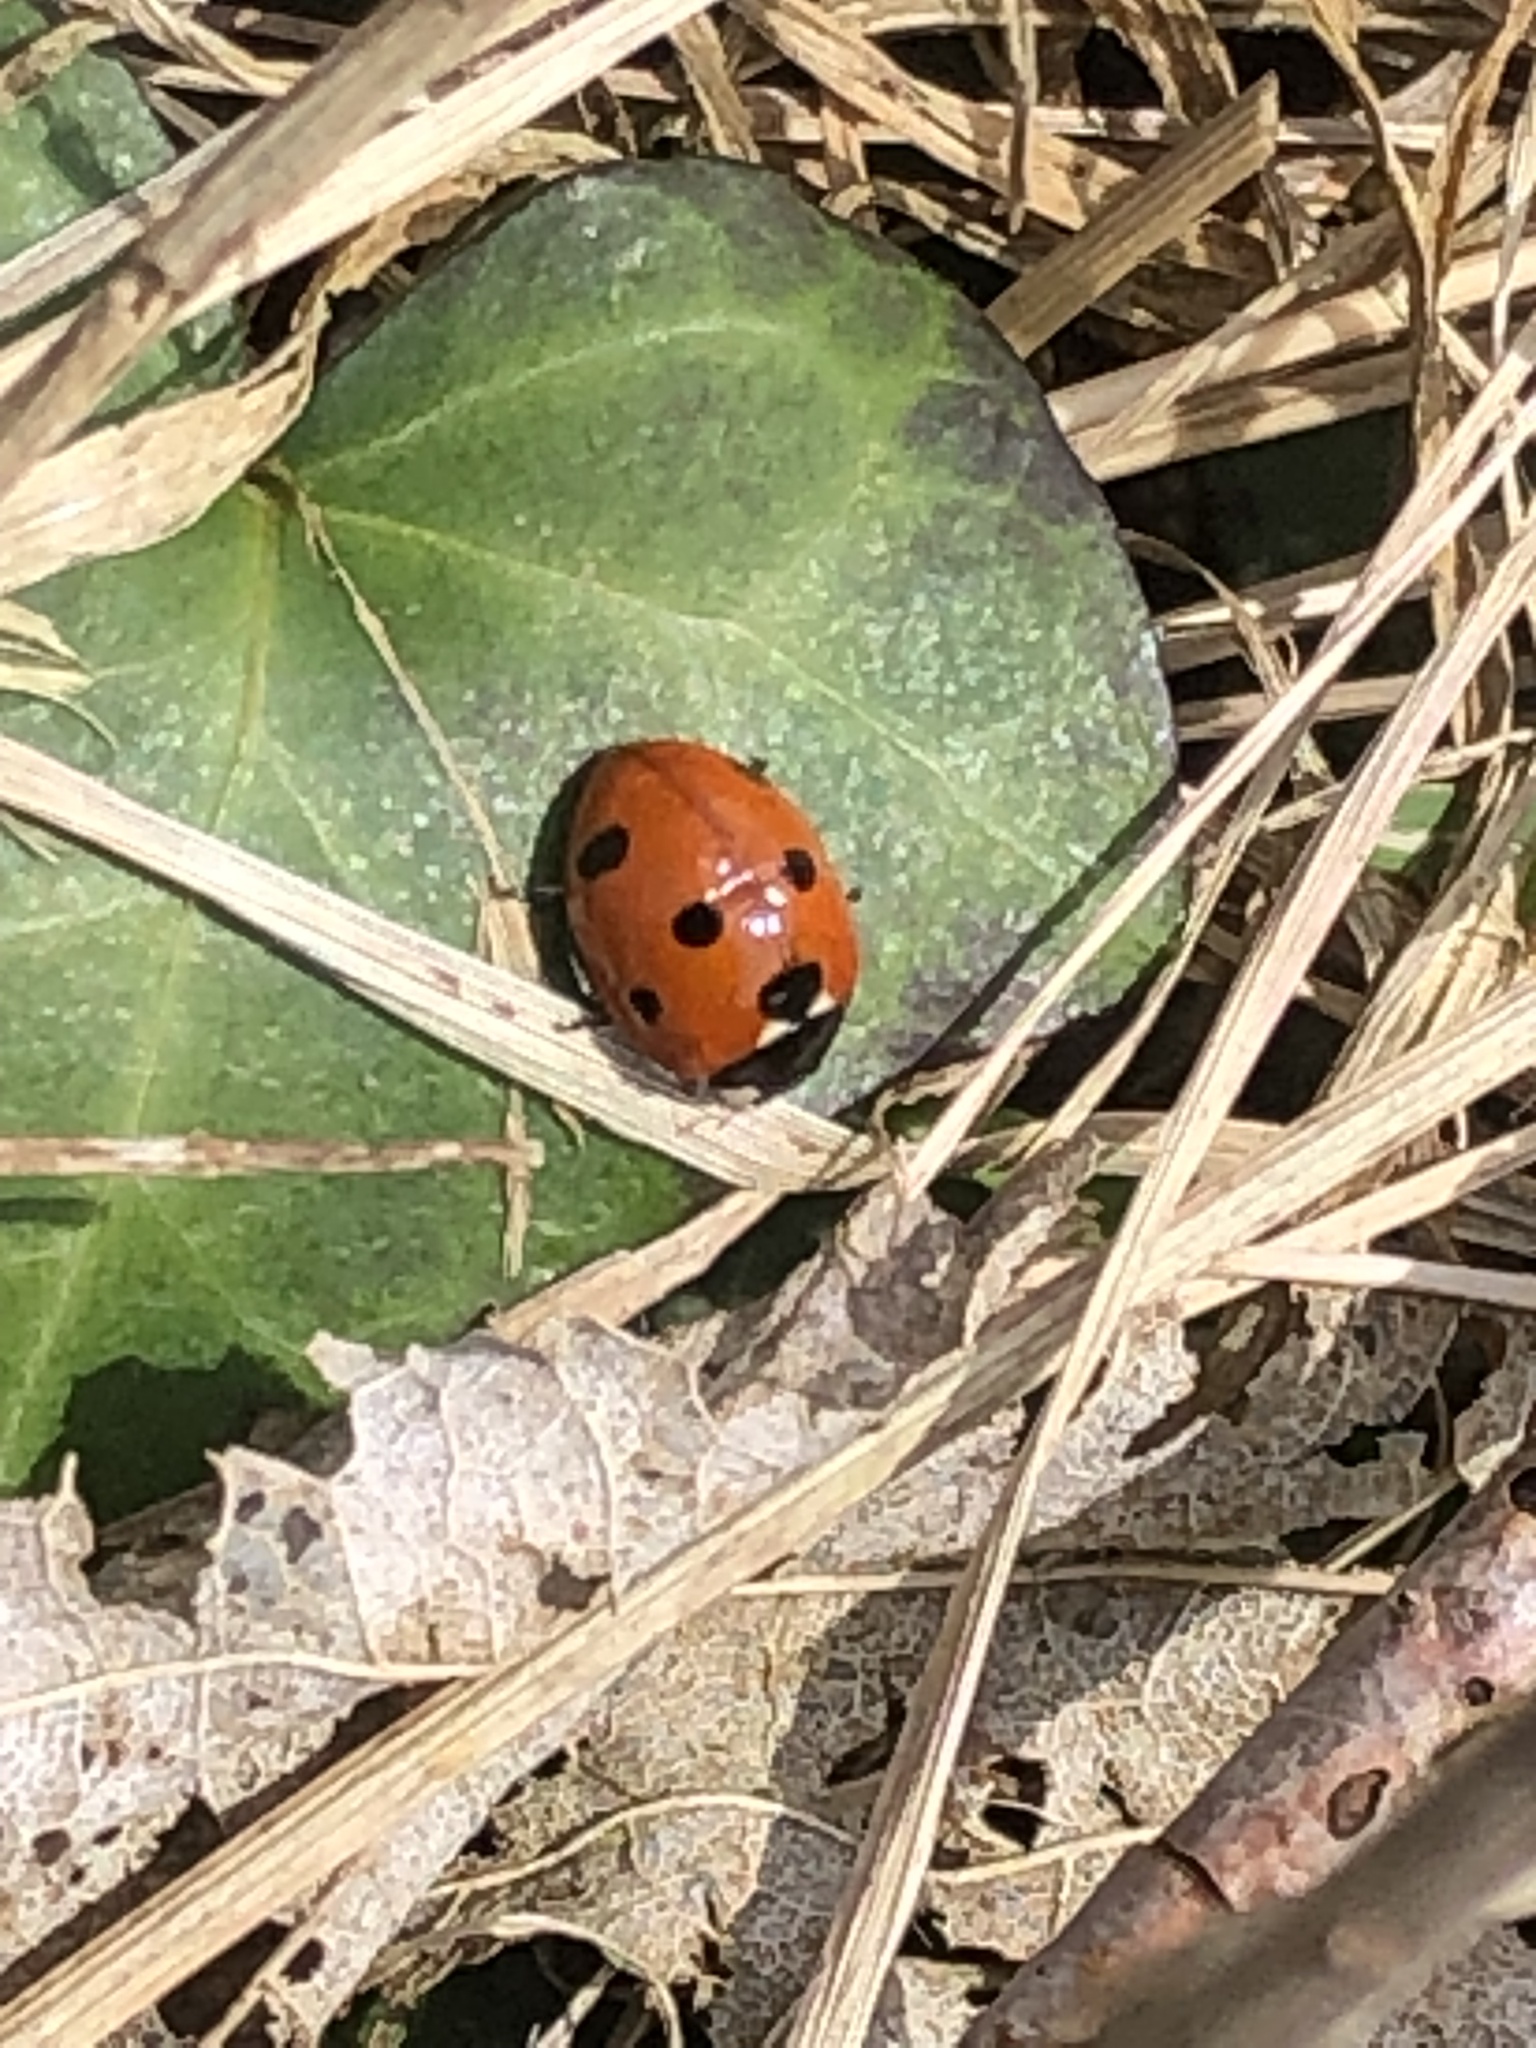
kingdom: Animalia
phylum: Arthropoda
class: Insecta
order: Coleoptera
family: Coccinellidae
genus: Coccinella
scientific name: Coccinella septempunctata
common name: Sevenspotted lady beetle
